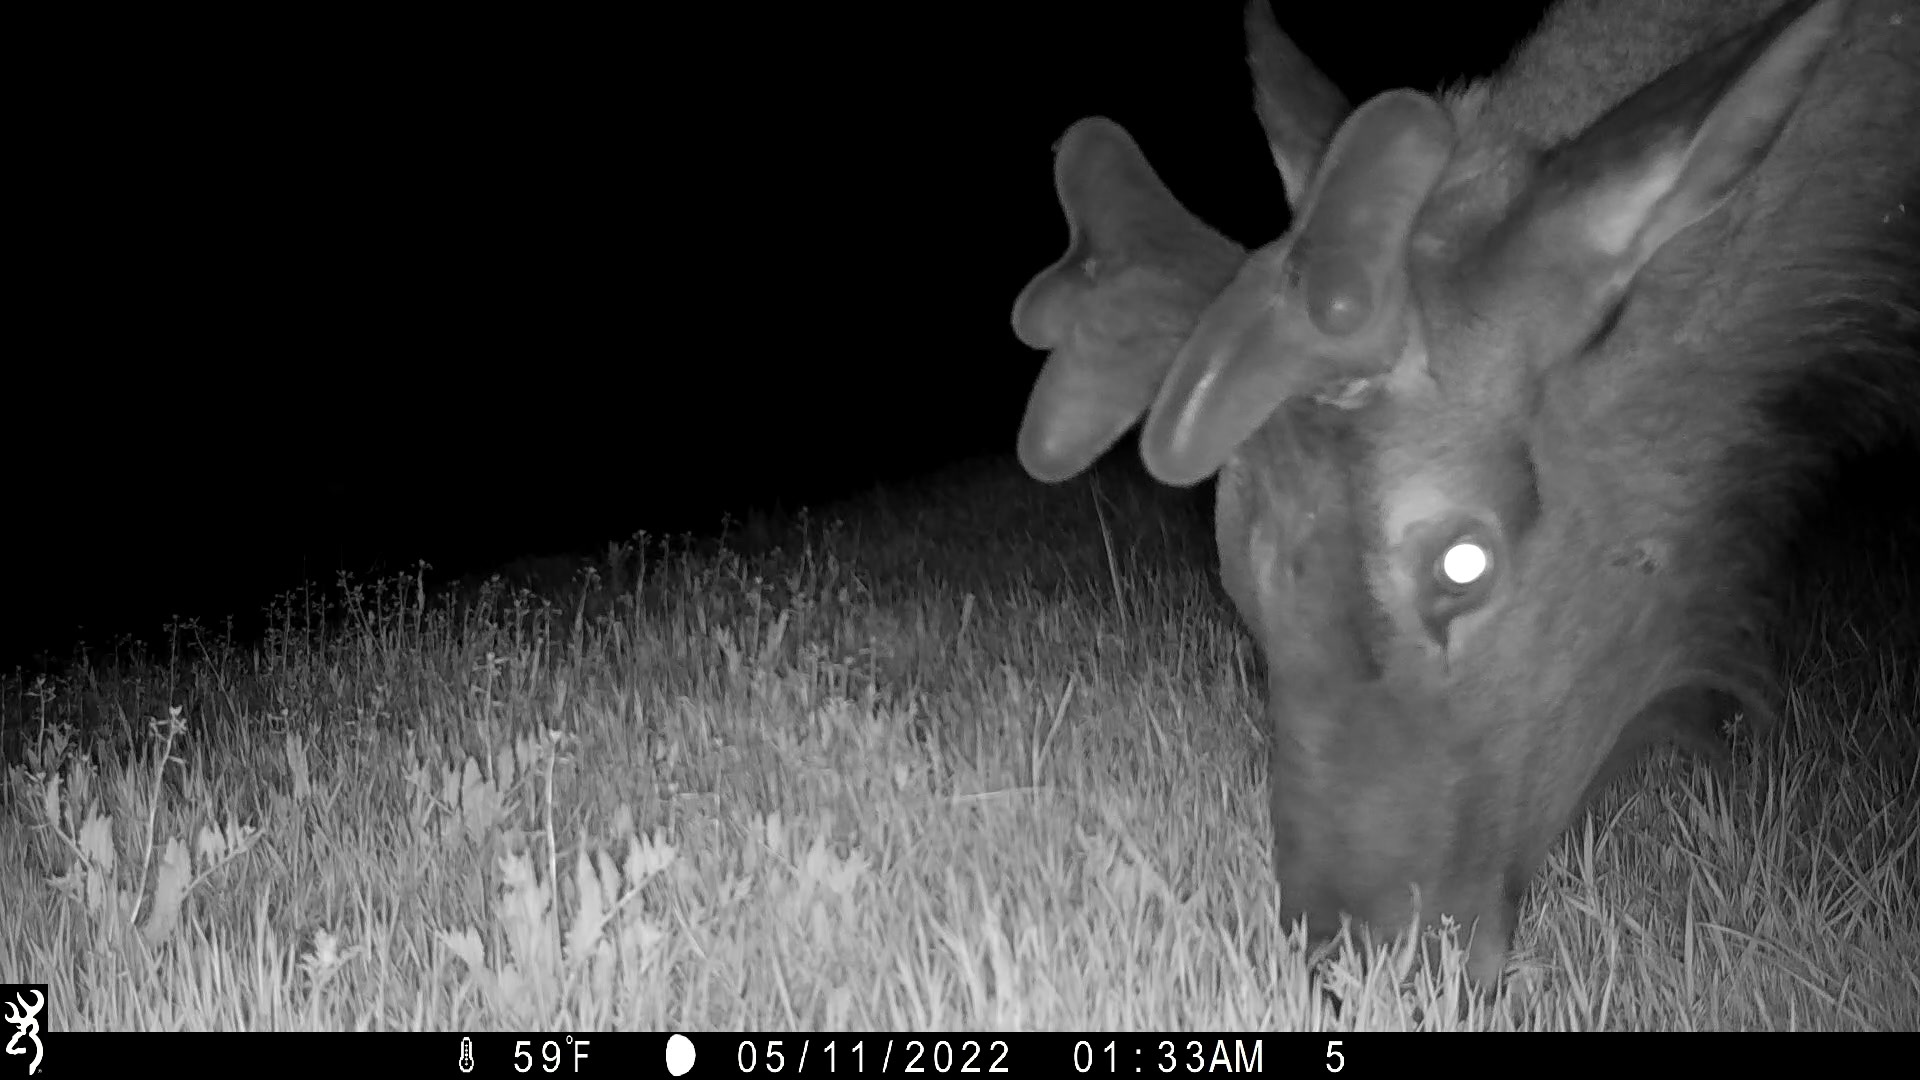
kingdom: Animalia
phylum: Chordata
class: Mammalia
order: Artiodactyla
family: Cervidae
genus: Cervus
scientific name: Cervus elaphus
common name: Red deer
